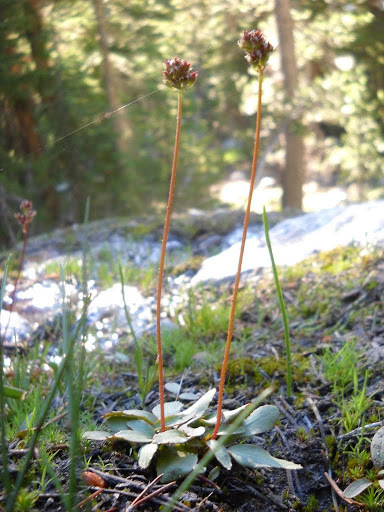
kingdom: Plantae
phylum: Tracheophyta
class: Magnoliopsida
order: Saxifragales
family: Saxifragaceae
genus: Micranthes
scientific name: Micranthes aprica
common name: Sierra saxifrage
